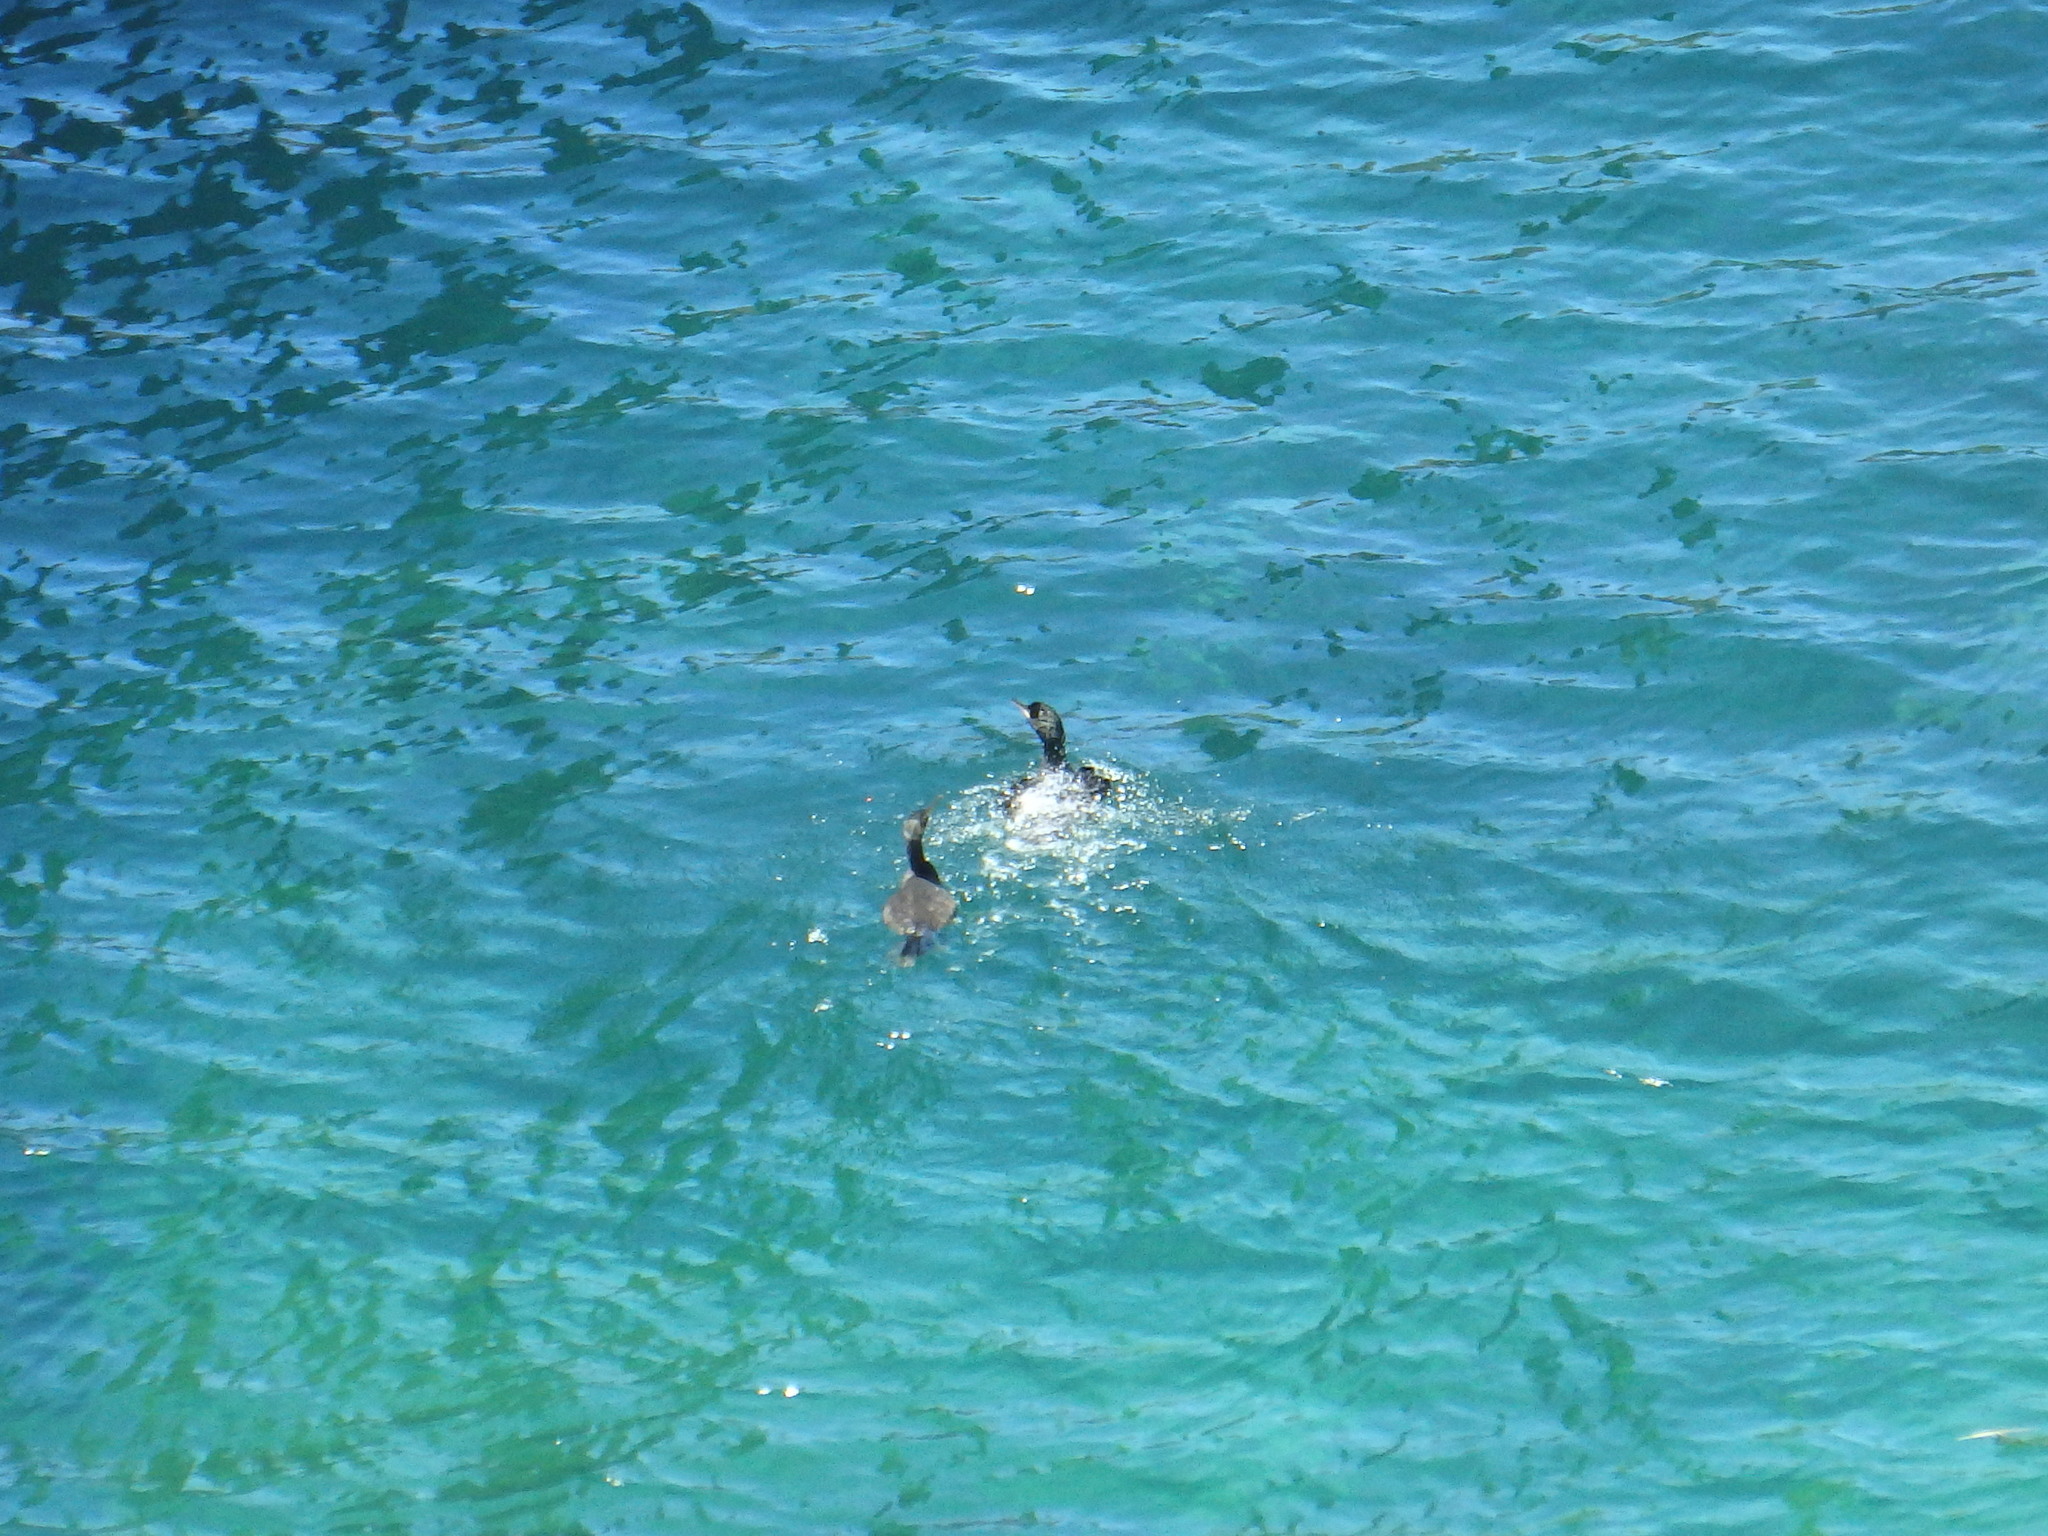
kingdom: Animalia
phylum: Chordata
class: Aves
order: Suliformes
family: Phalacrocoracidae
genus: Phalacrocorax
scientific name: Phalacrocorax aristotelis
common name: European shag
